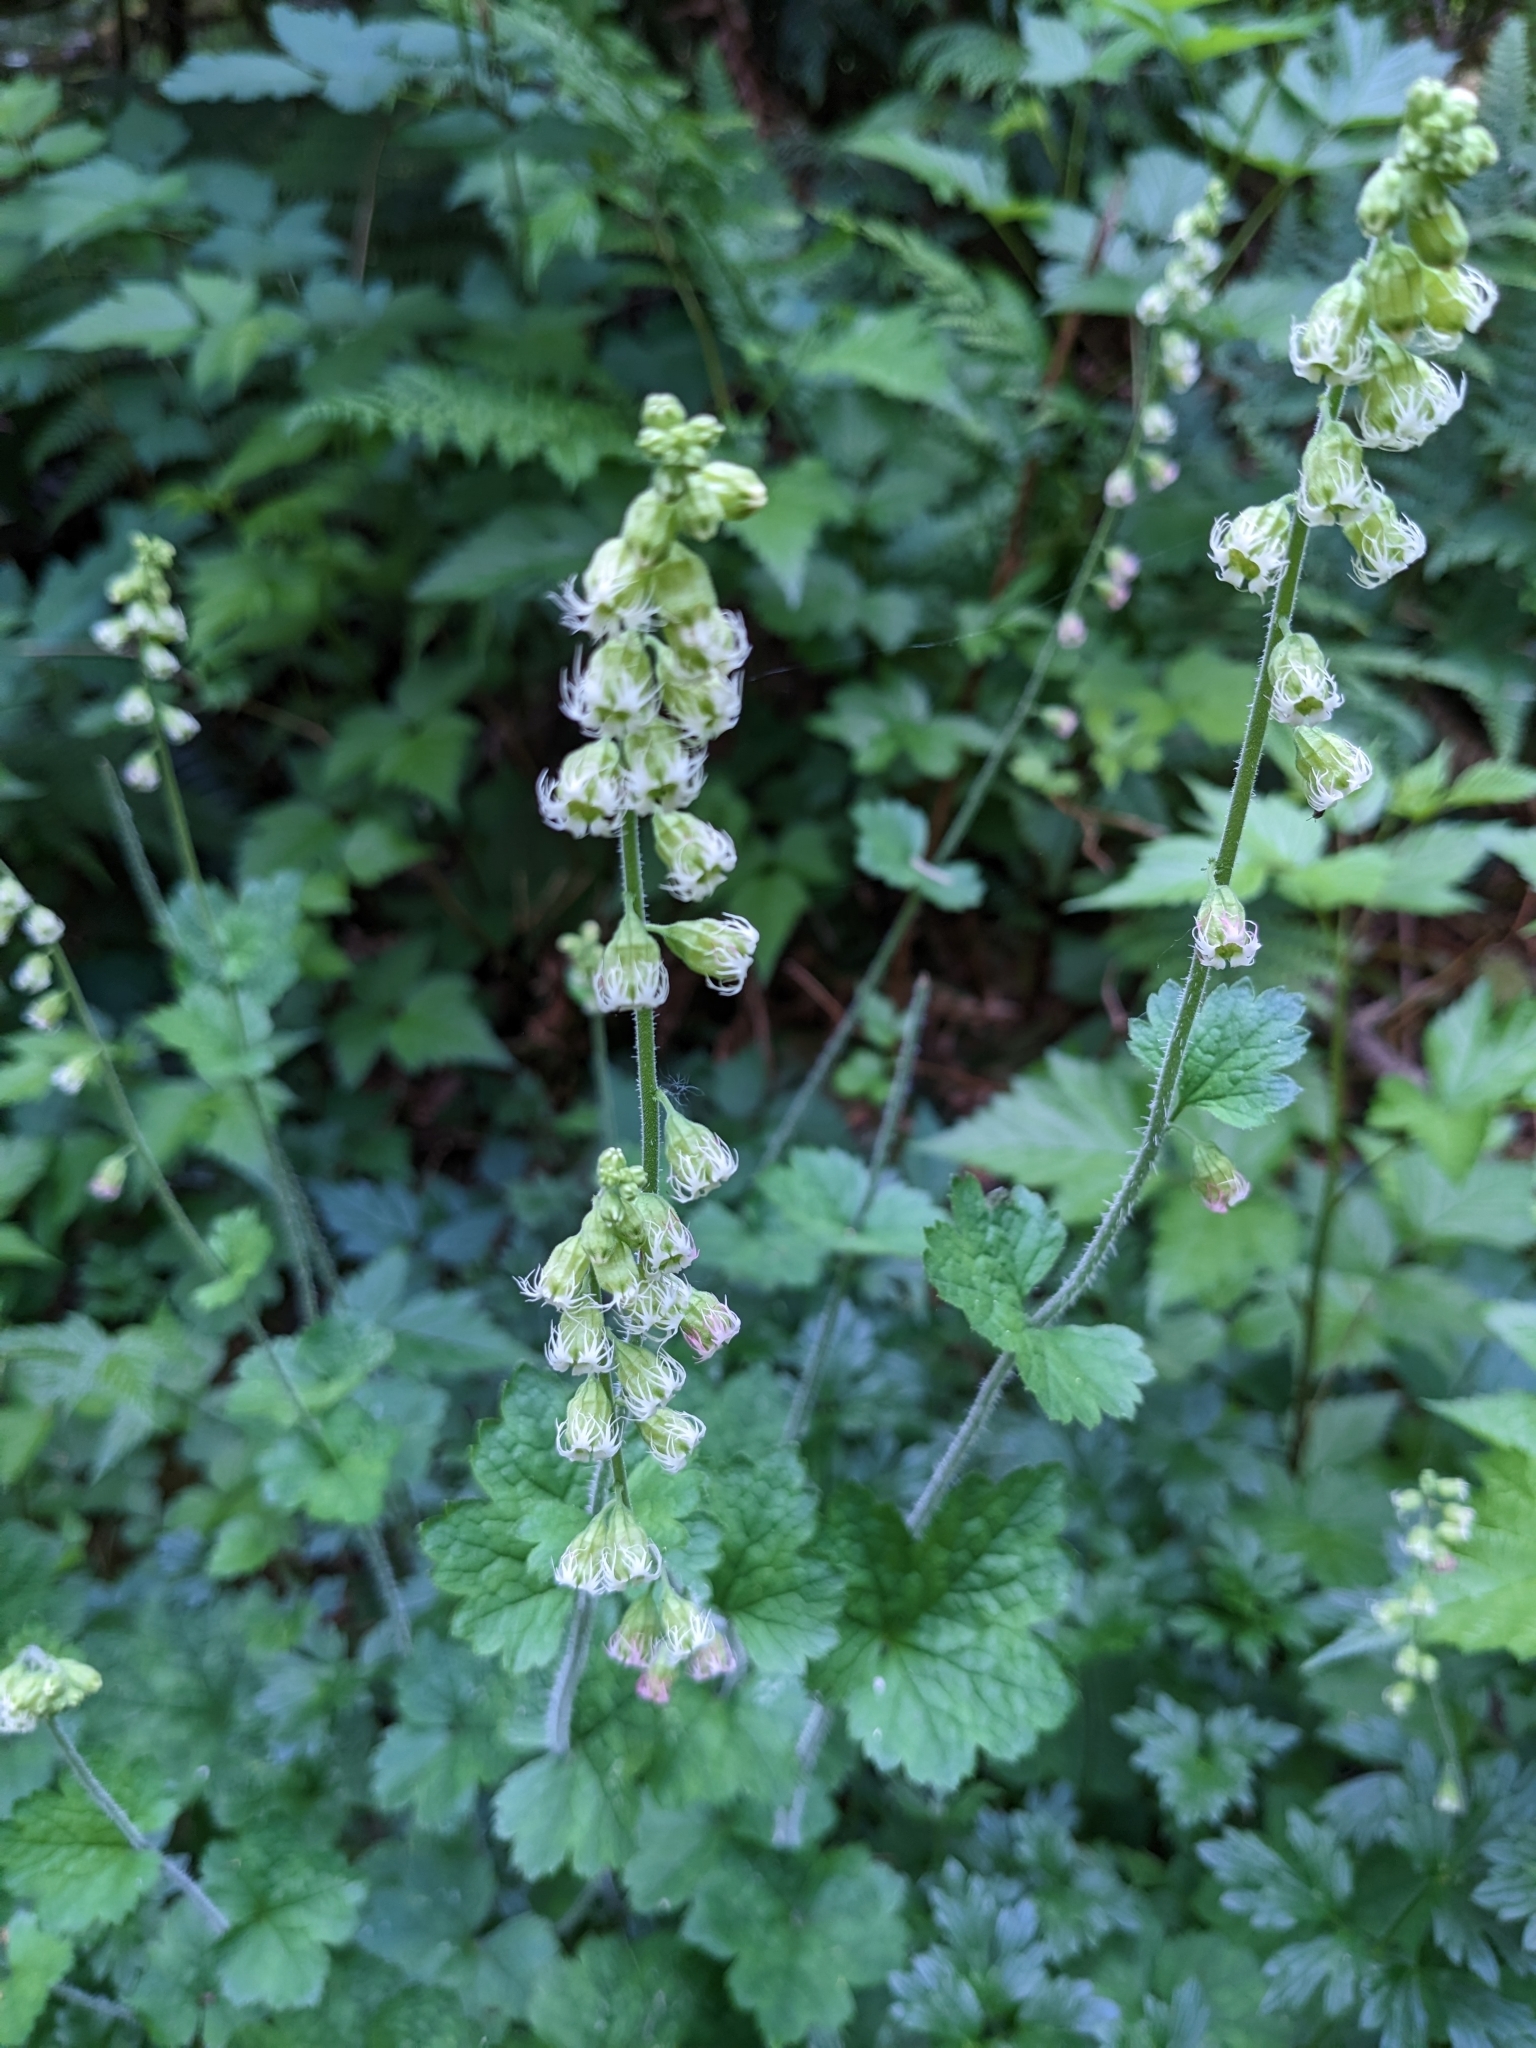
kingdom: Plantae
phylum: Tracheophyta
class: Magnoliopsida
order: Saxifragales
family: Saxifragaceae
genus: Tellima
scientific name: Tellima grandiflora
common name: Fringecups
